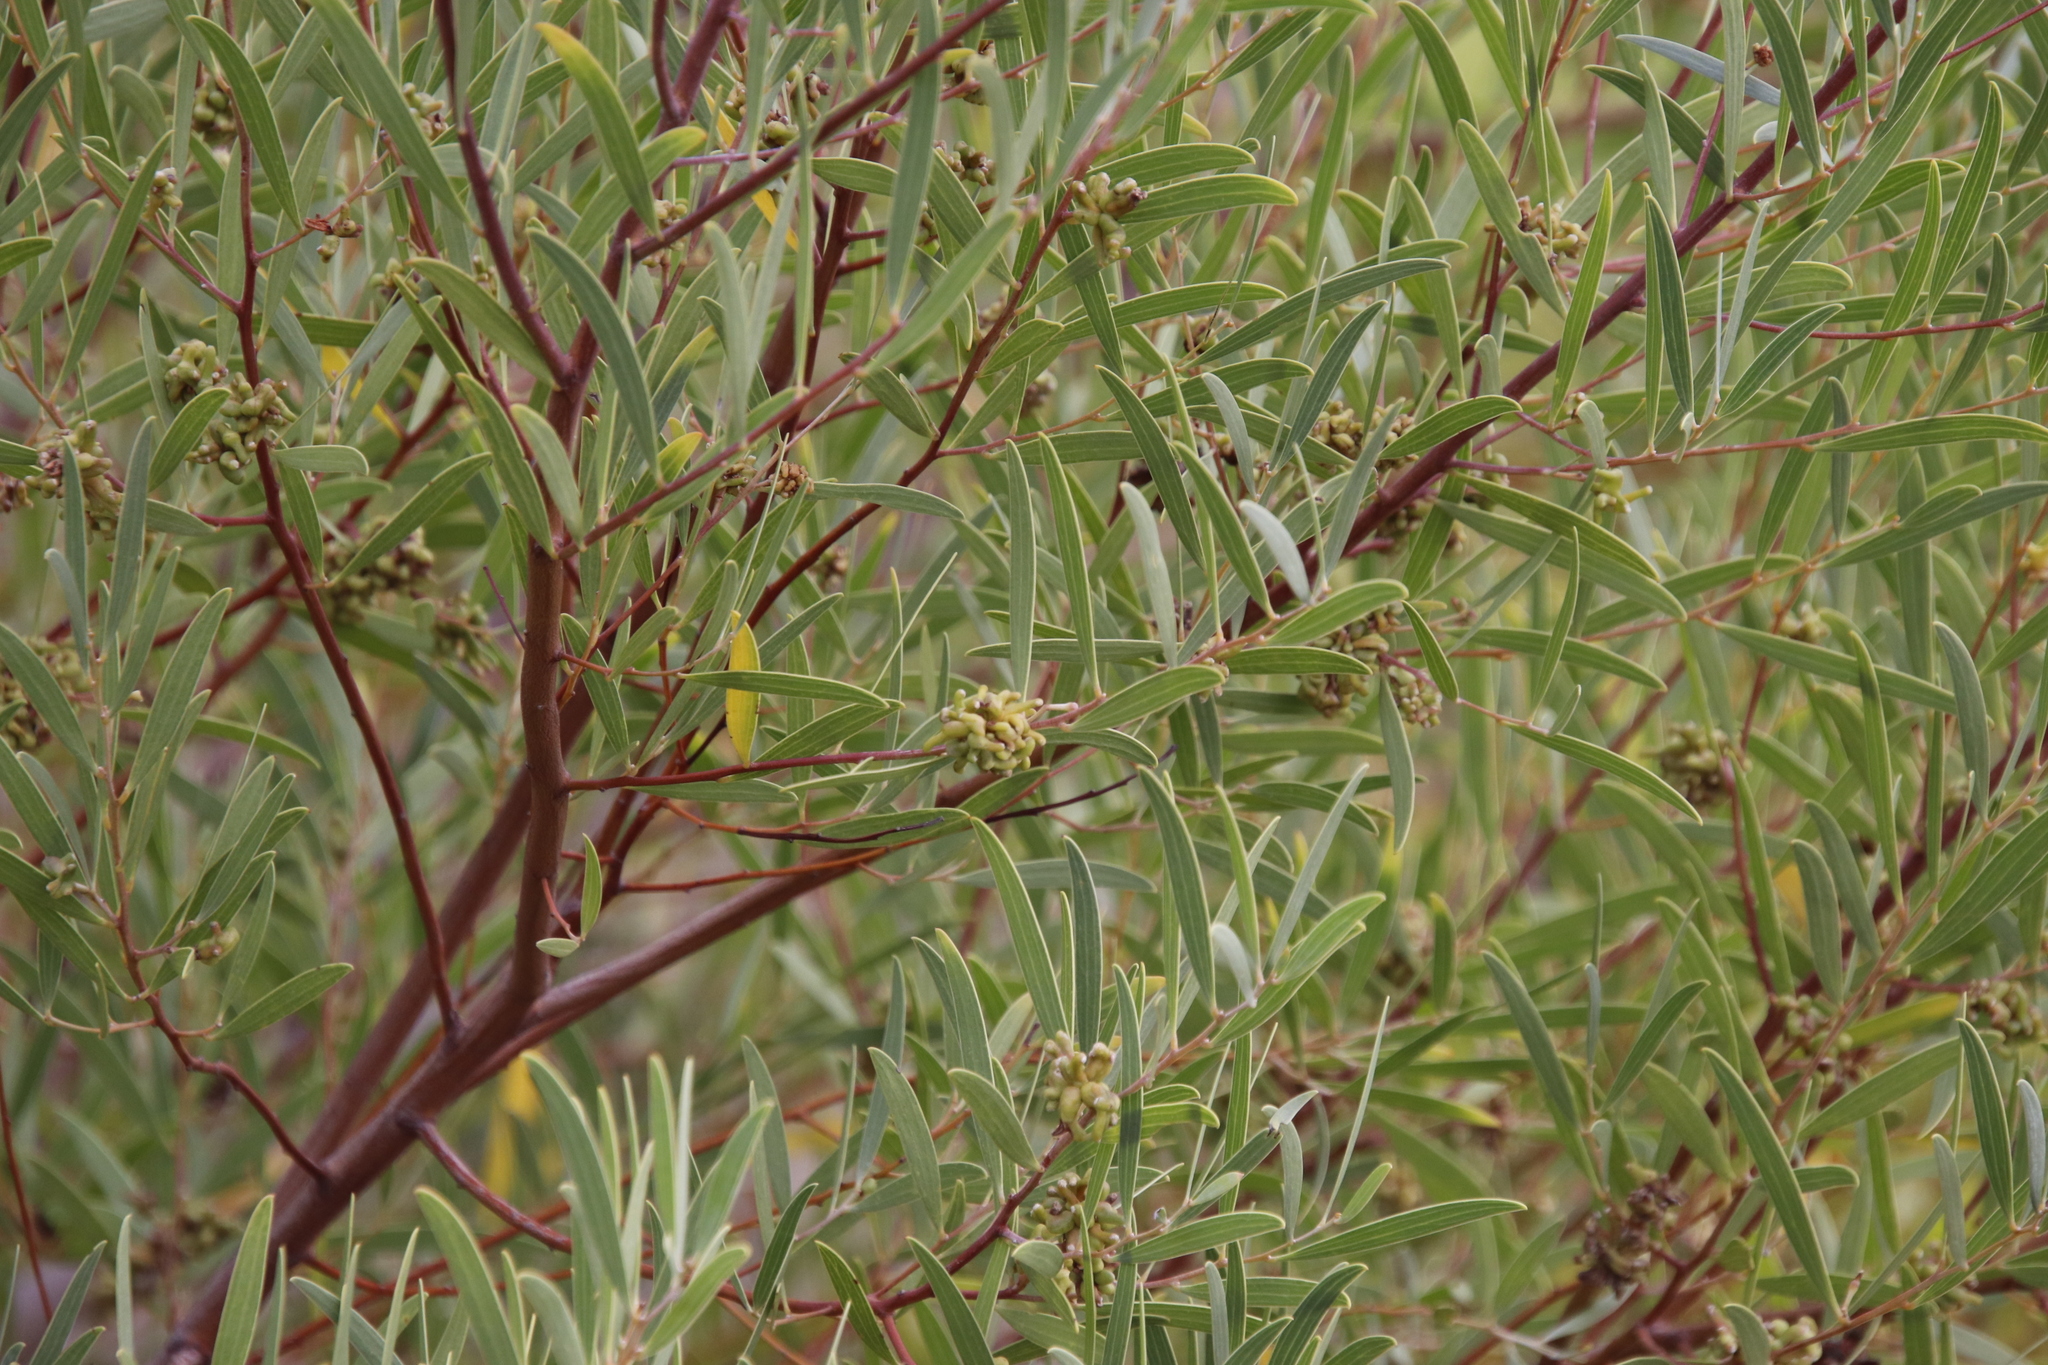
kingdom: Plantae
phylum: Tracheophyta
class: Magnoliopsida
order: Fabales
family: Fabaceae
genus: Acacia
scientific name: Acacia cyclops
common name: Coastal wattle
